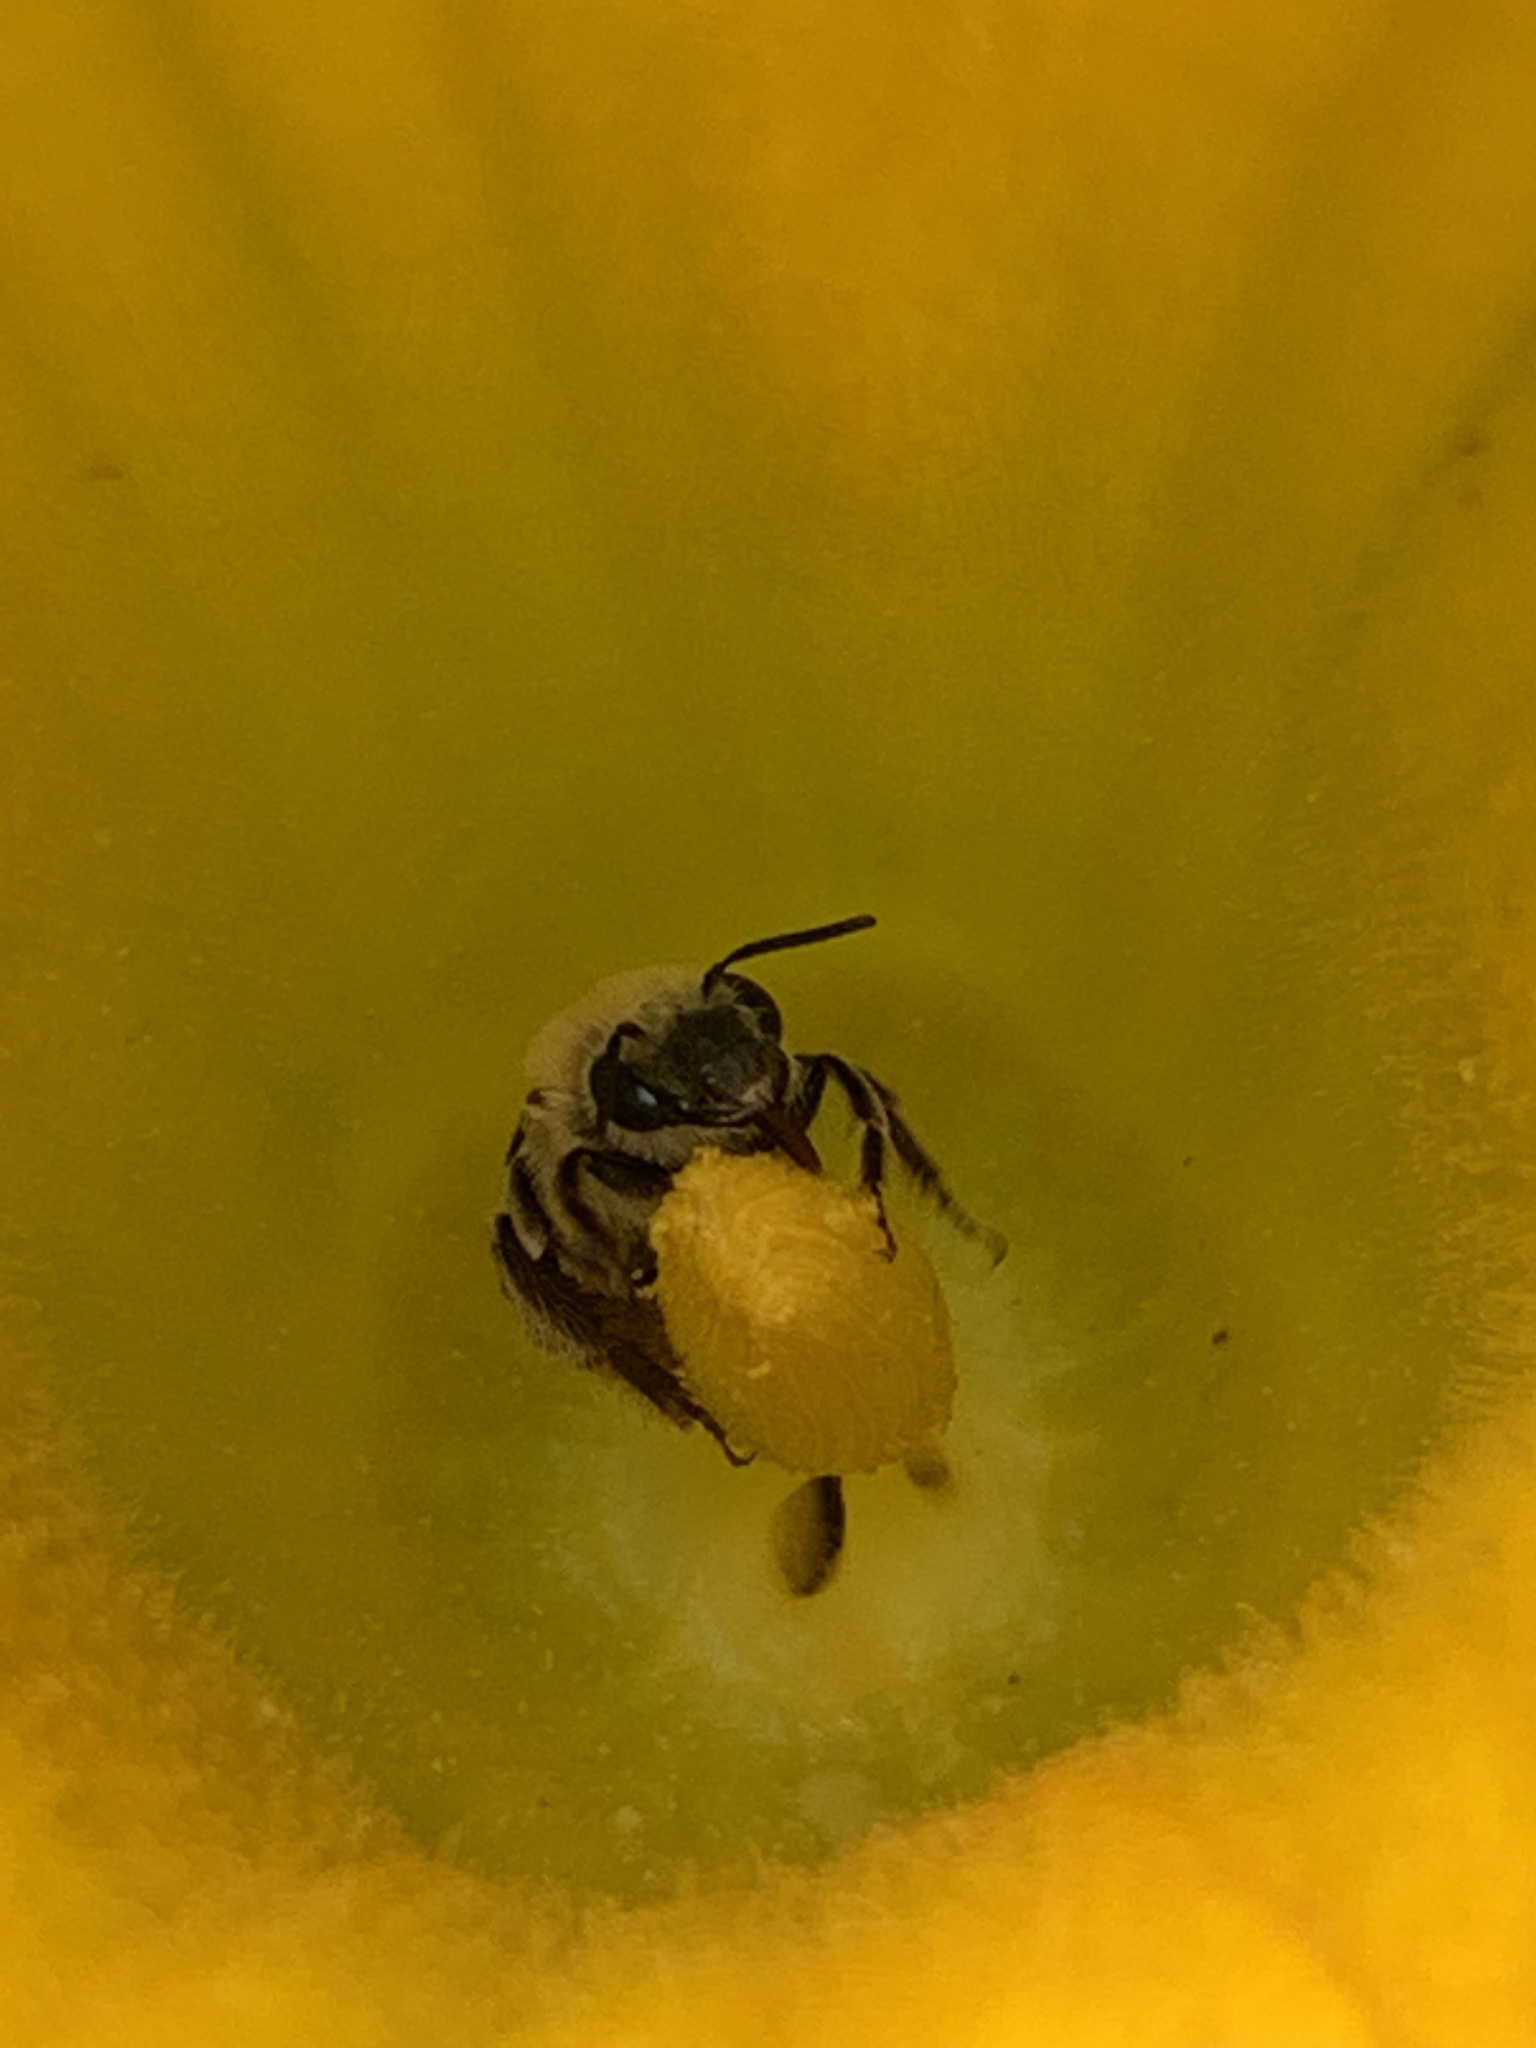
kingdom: Animalia
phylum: Arthropoda
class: Insecta
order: Hymenoptera
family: Apidae
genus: Peponapis
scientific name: Peponapis pruinosa
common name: Pruinose squash bee
